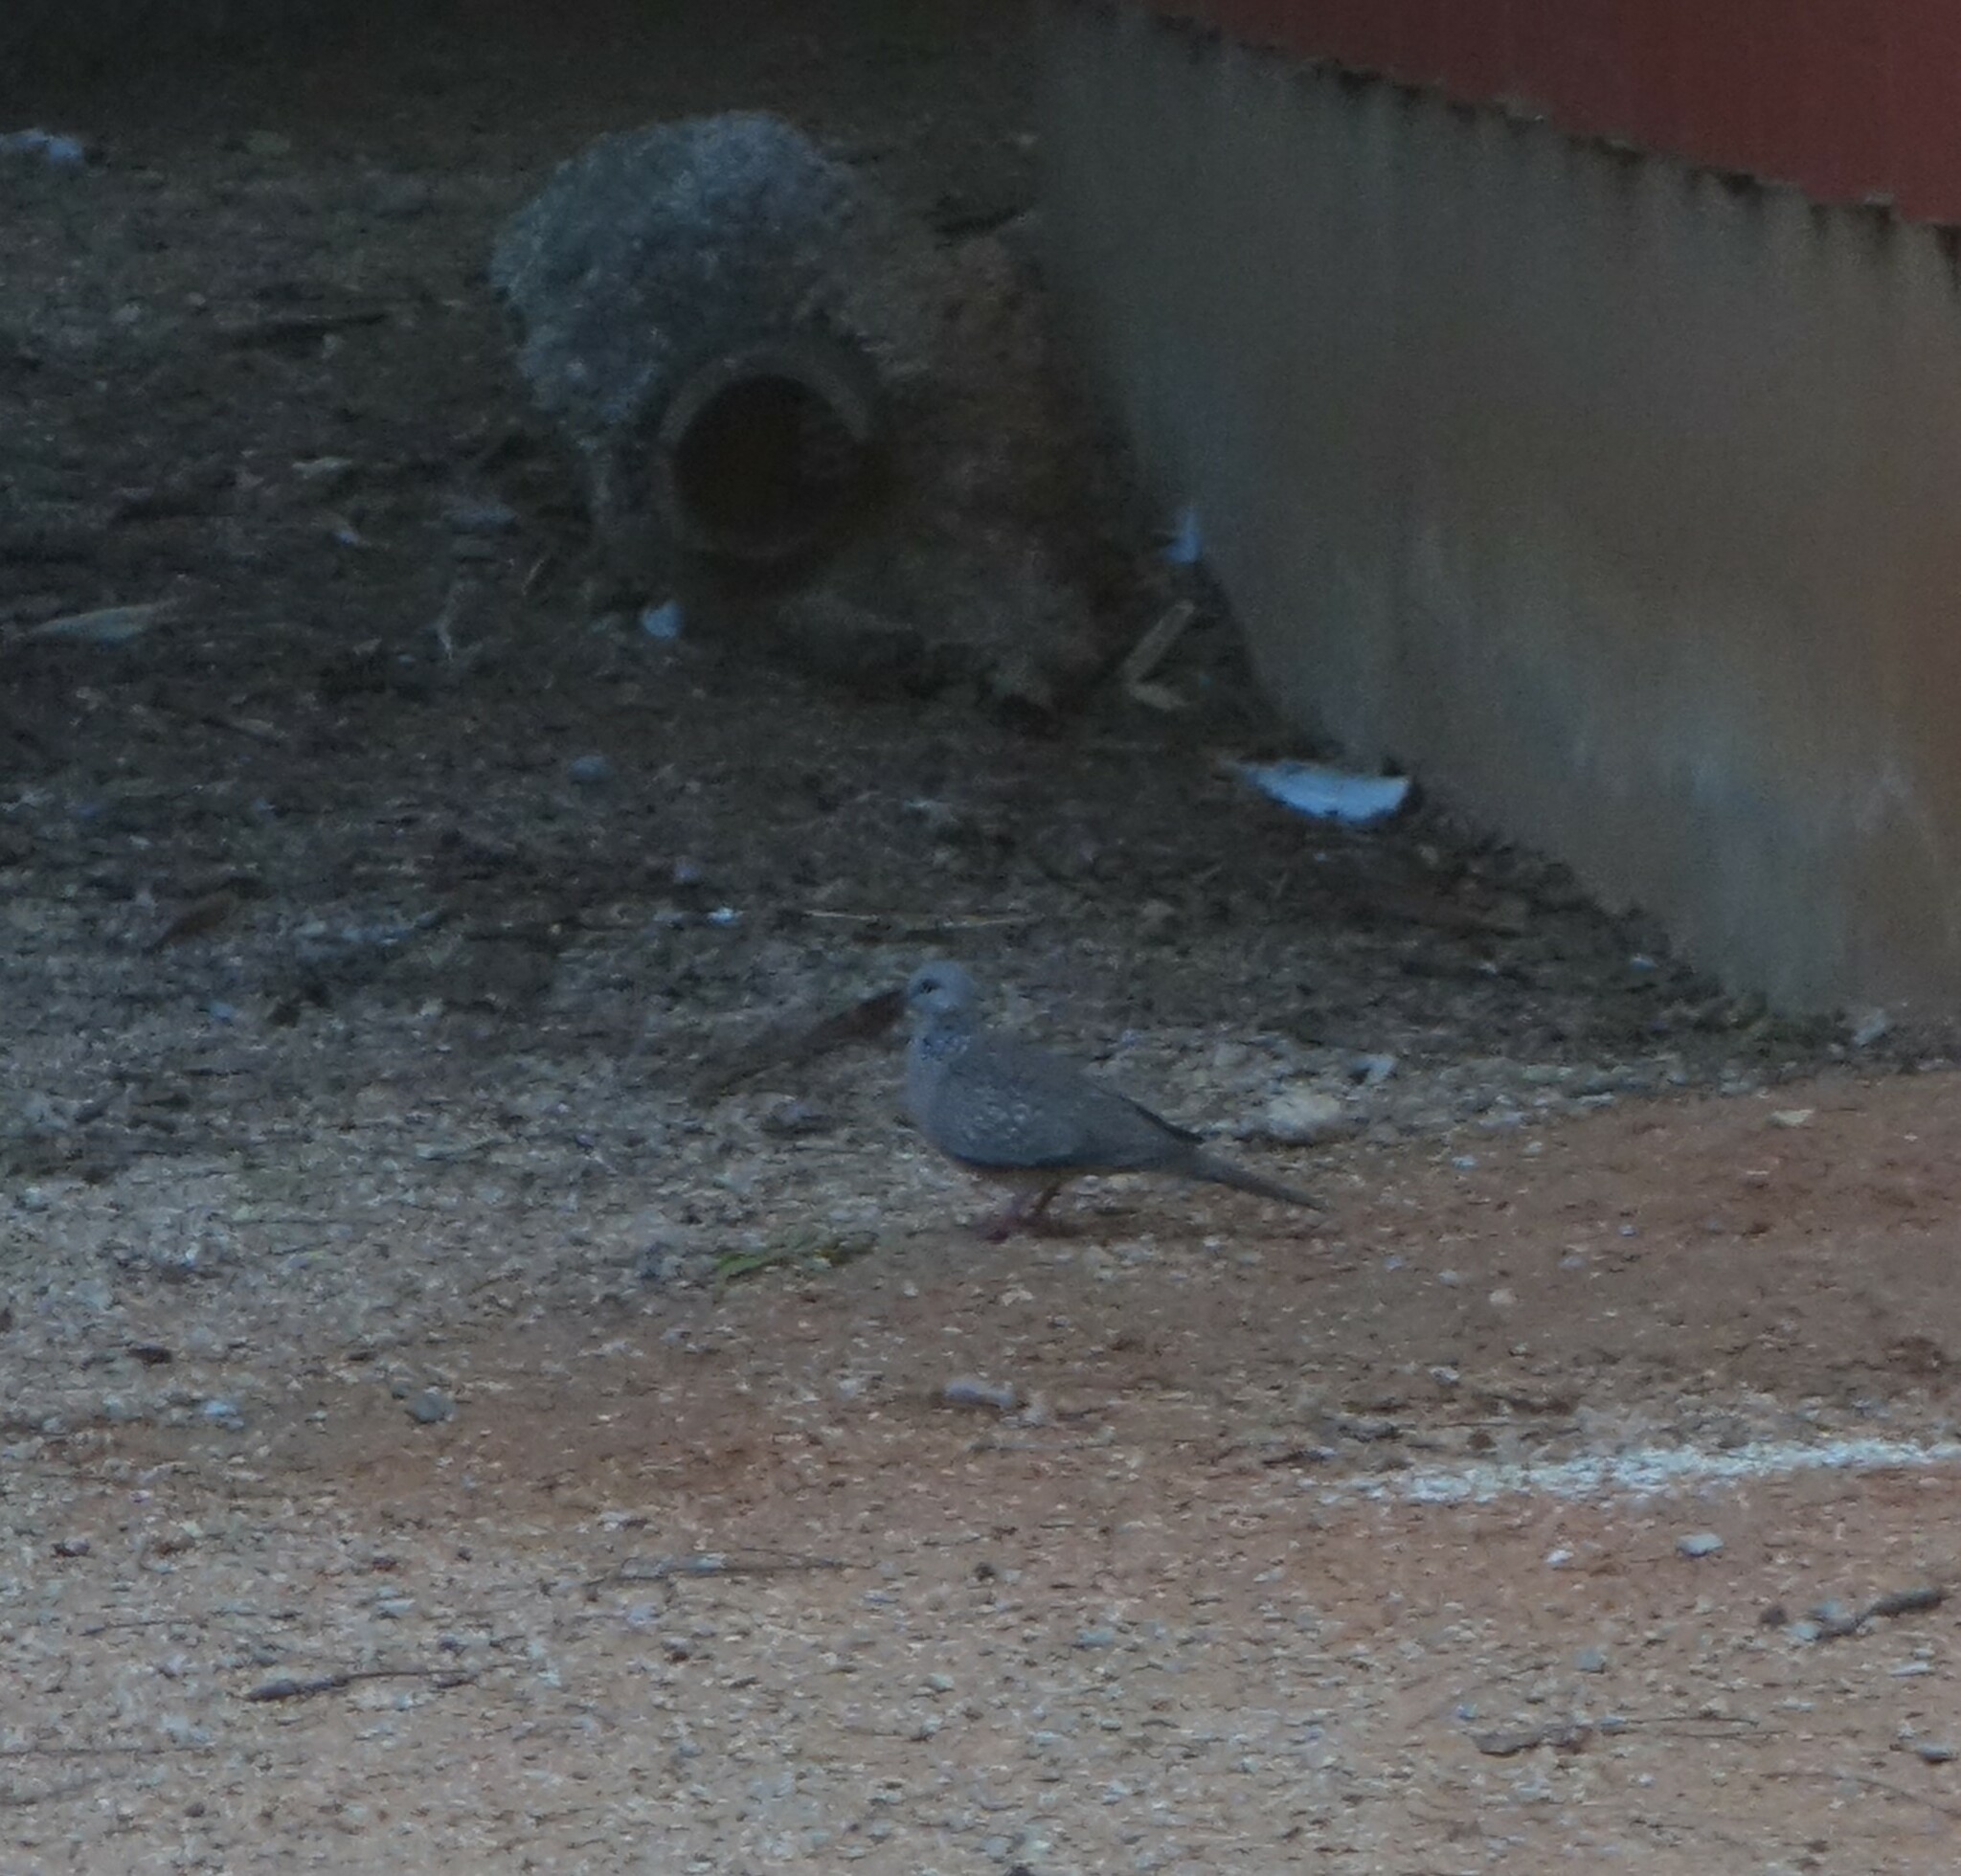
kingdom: Animalia
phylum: Chordata
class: Aves
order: Columbiformes
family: Columbidae
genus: Spilopelia
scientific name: Spilopelia chinensis
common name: Spotted dove
